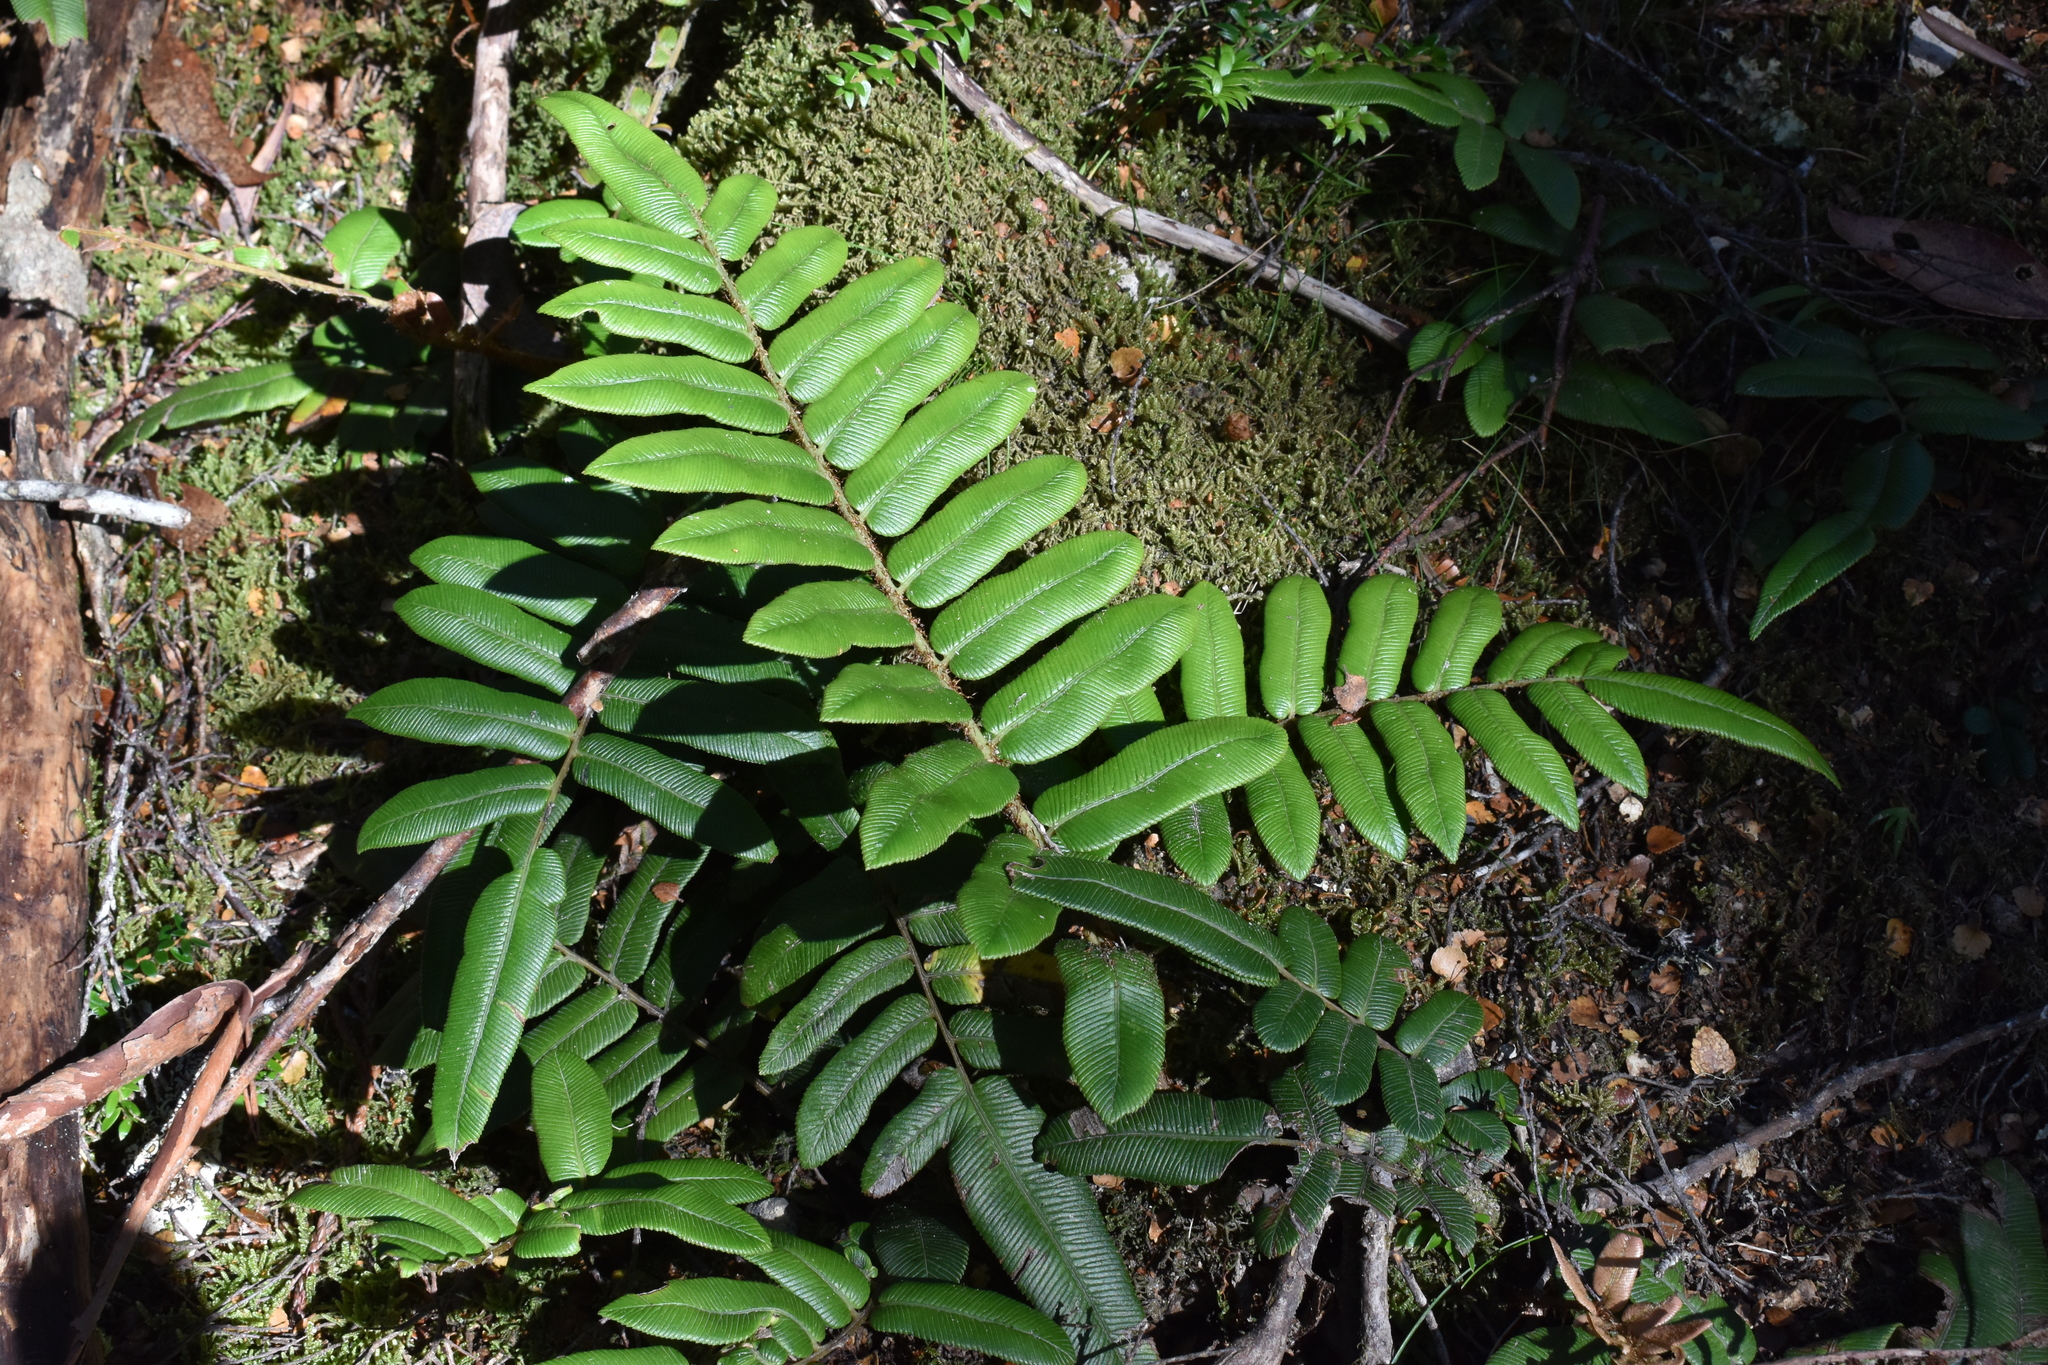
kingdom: Plantae
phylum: Tracheophyta
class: Polypodiopsida
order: Polypodiales
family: Blechnaceae
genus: Parablechnum
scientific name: Parablechnum wattsii
